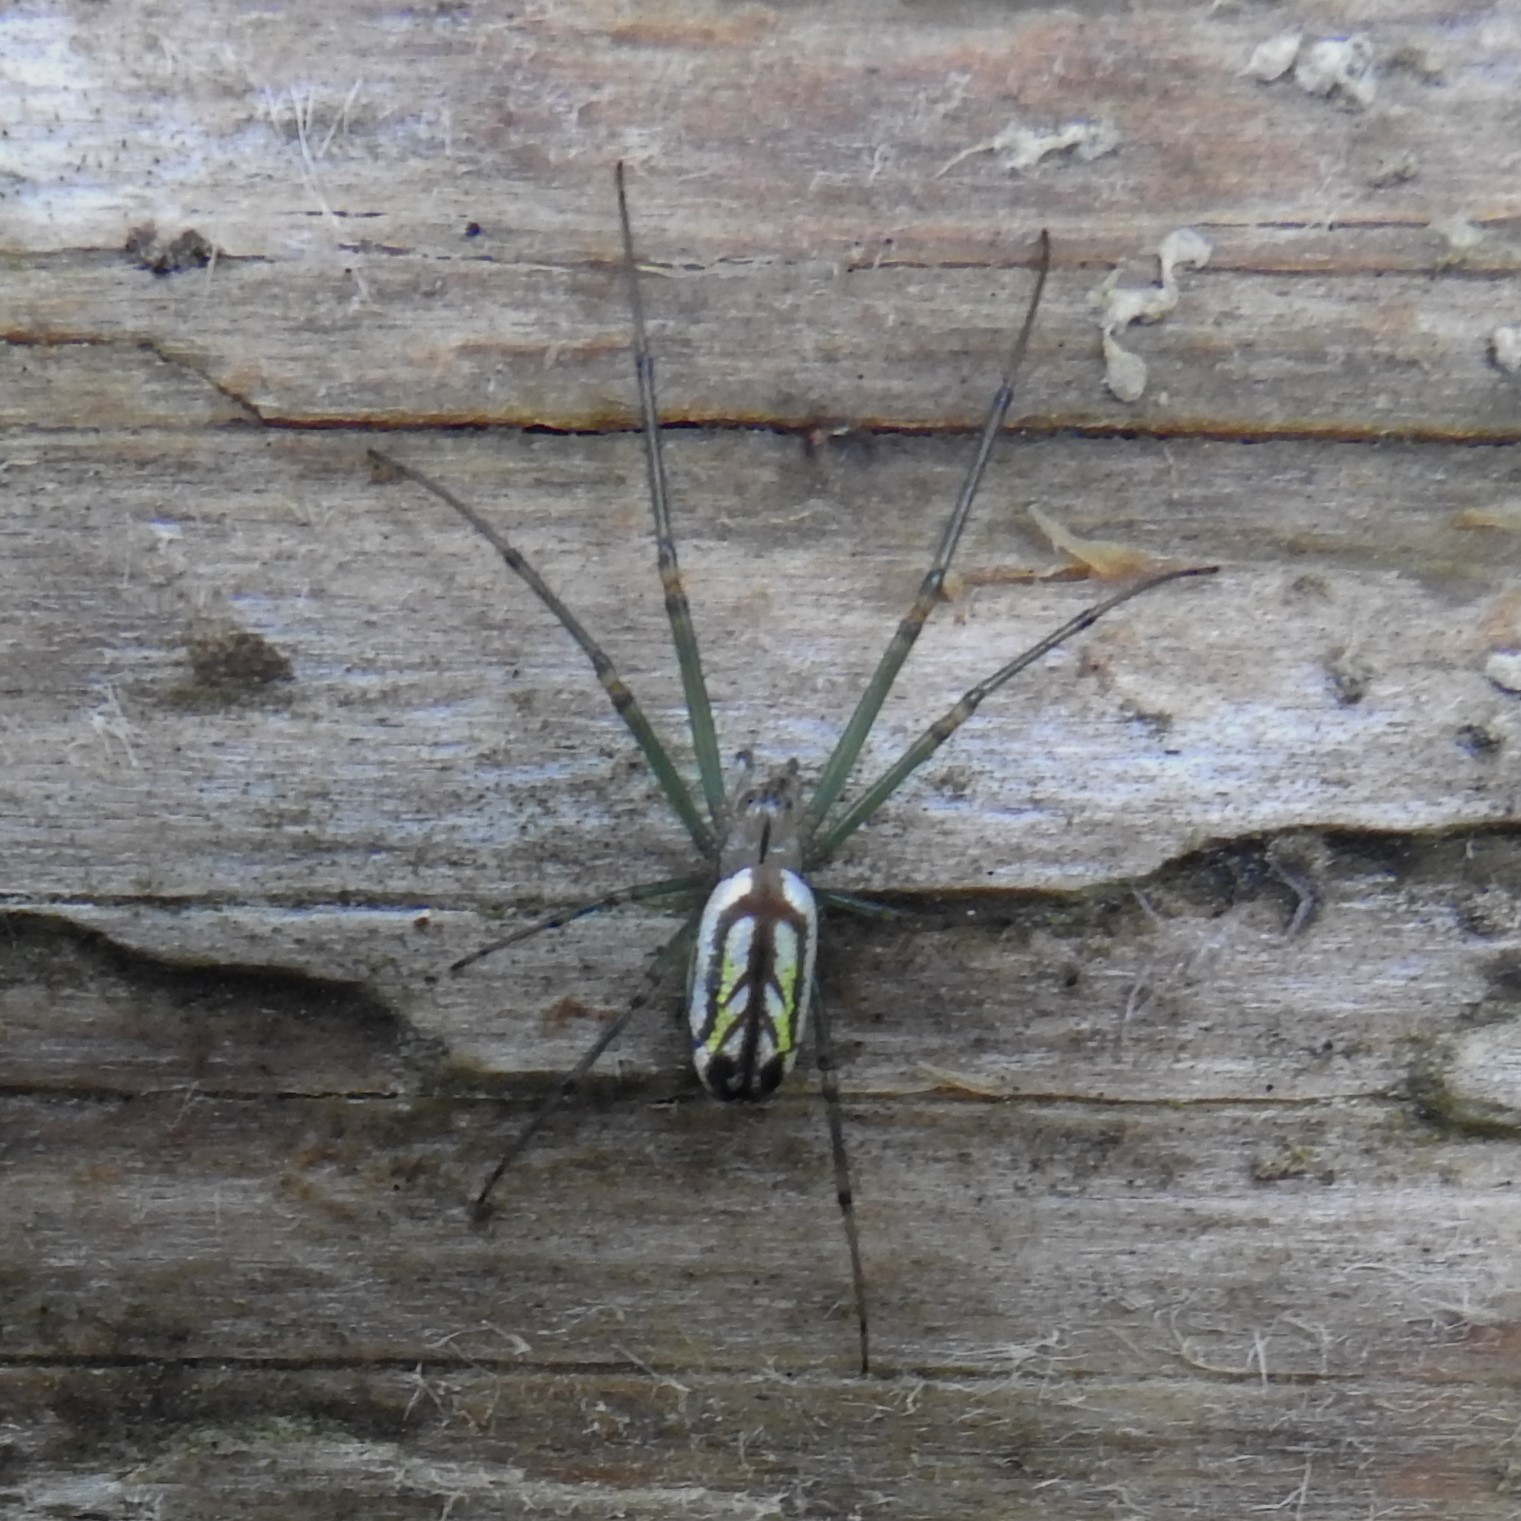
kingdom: Animalia
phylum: Arthropoda
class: Arachnida
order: Araneae
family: Tetragnathidae
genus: Leucauge
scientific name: Leucauge venusta
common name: Longjawed orb weavers
